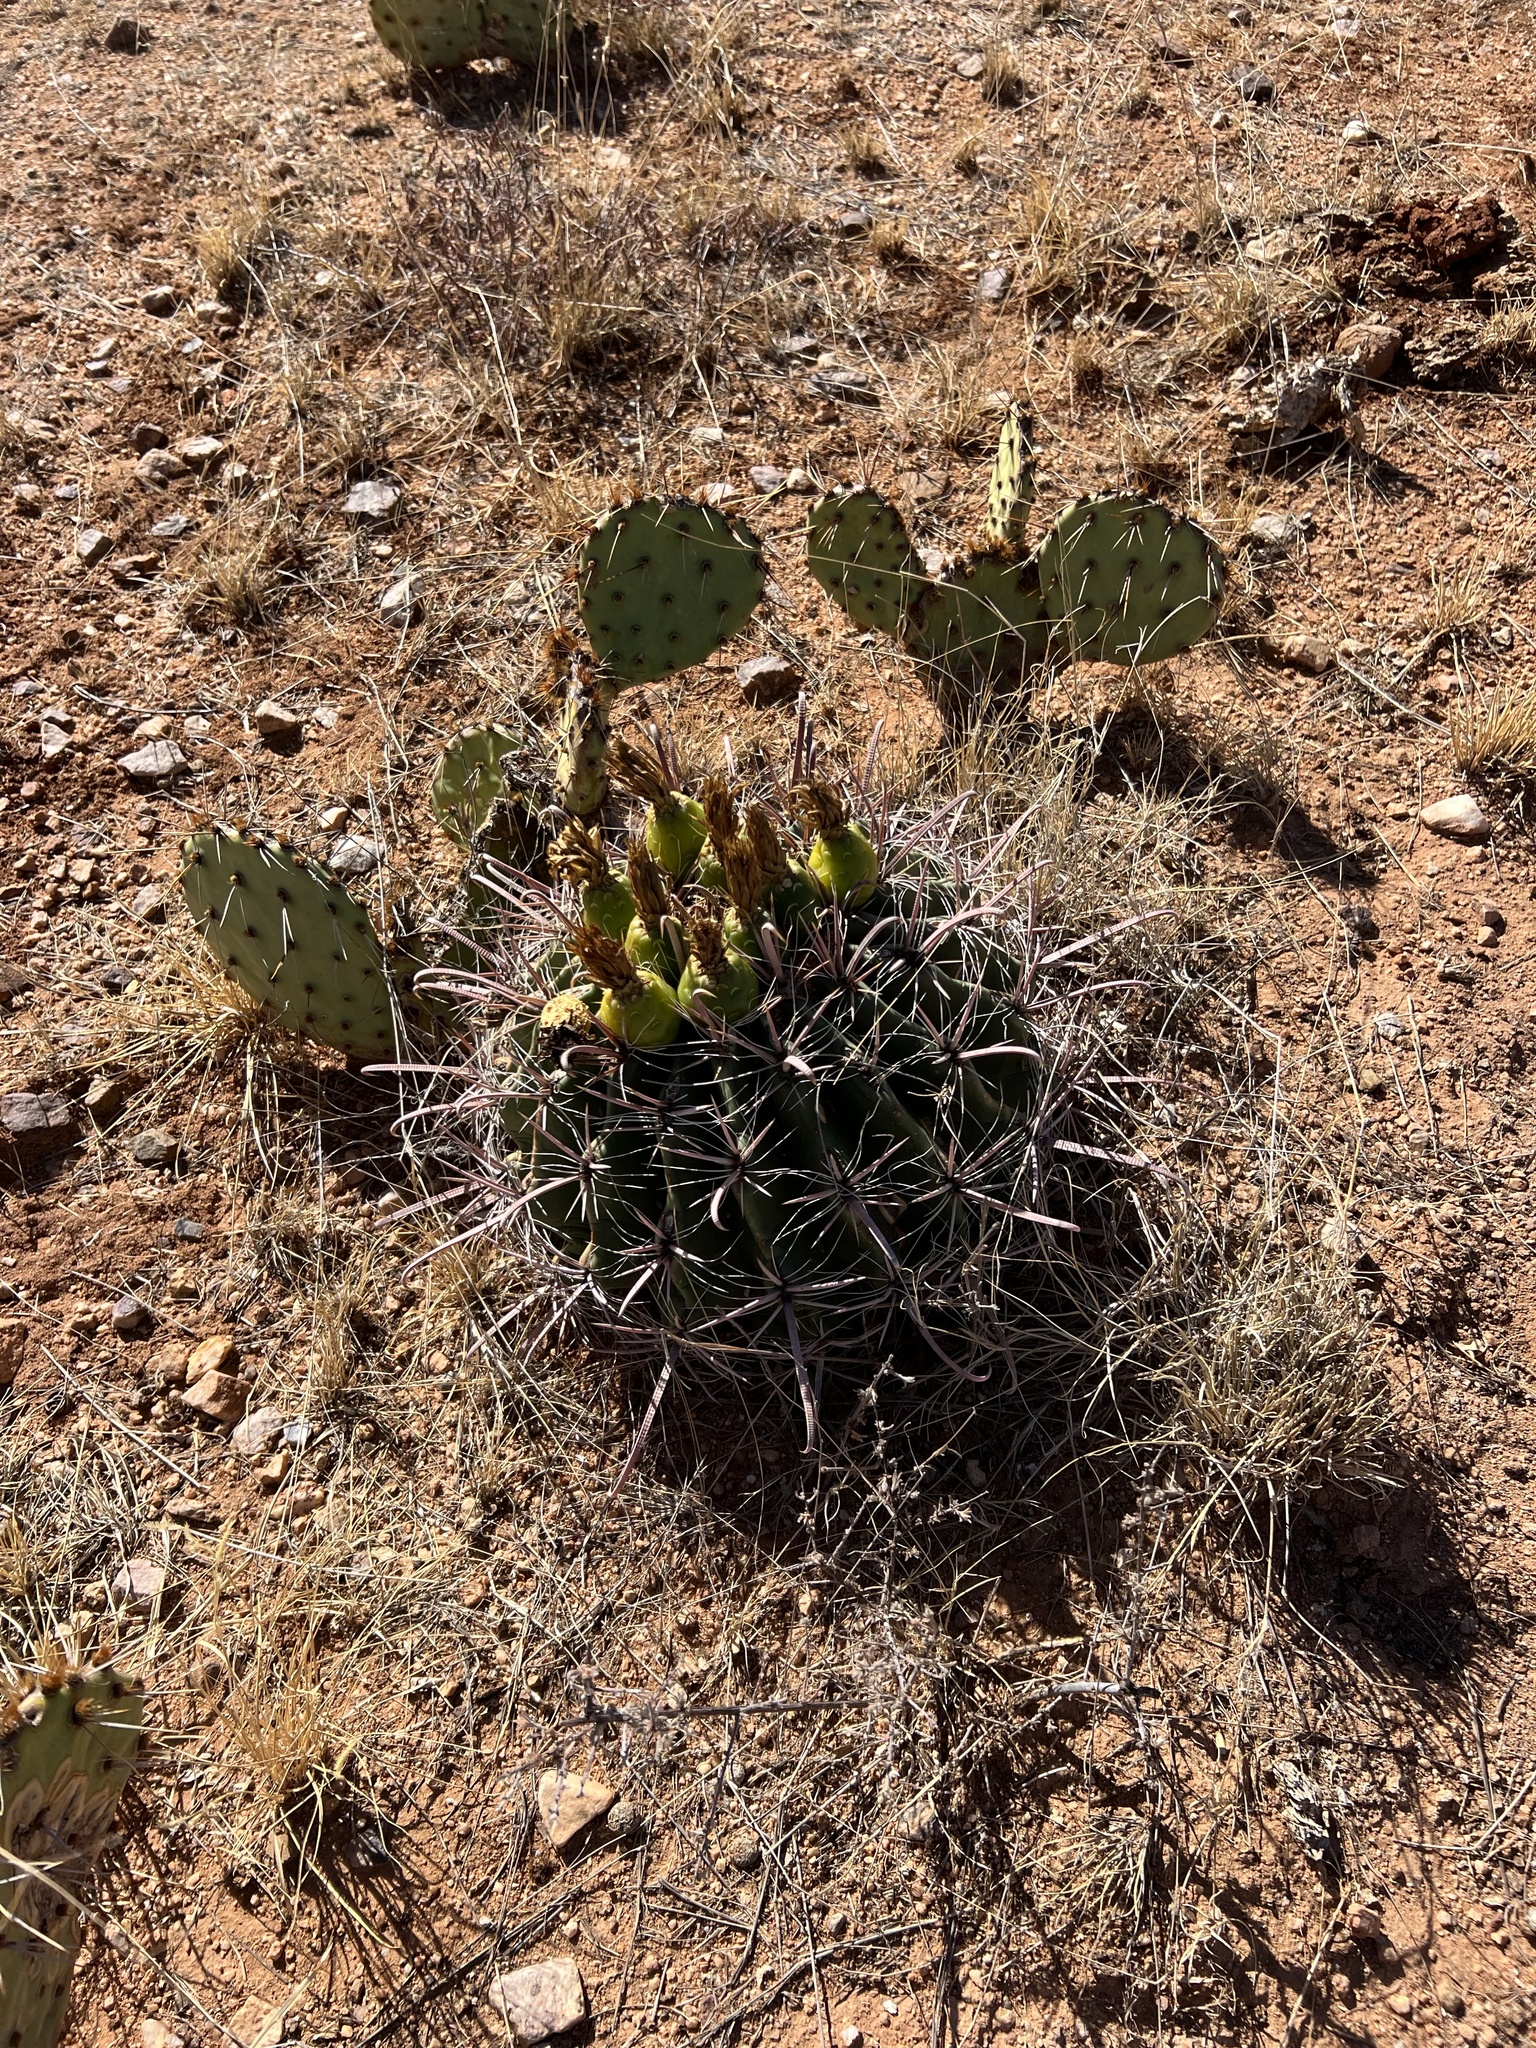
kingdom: Plantae
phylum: Tracheophyta
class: Magnoliopsida
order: Caryophyllales
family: Cactaceae
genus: Ferocactus
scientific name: Ferocactus wislizeni
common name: Candy barrel cactus
